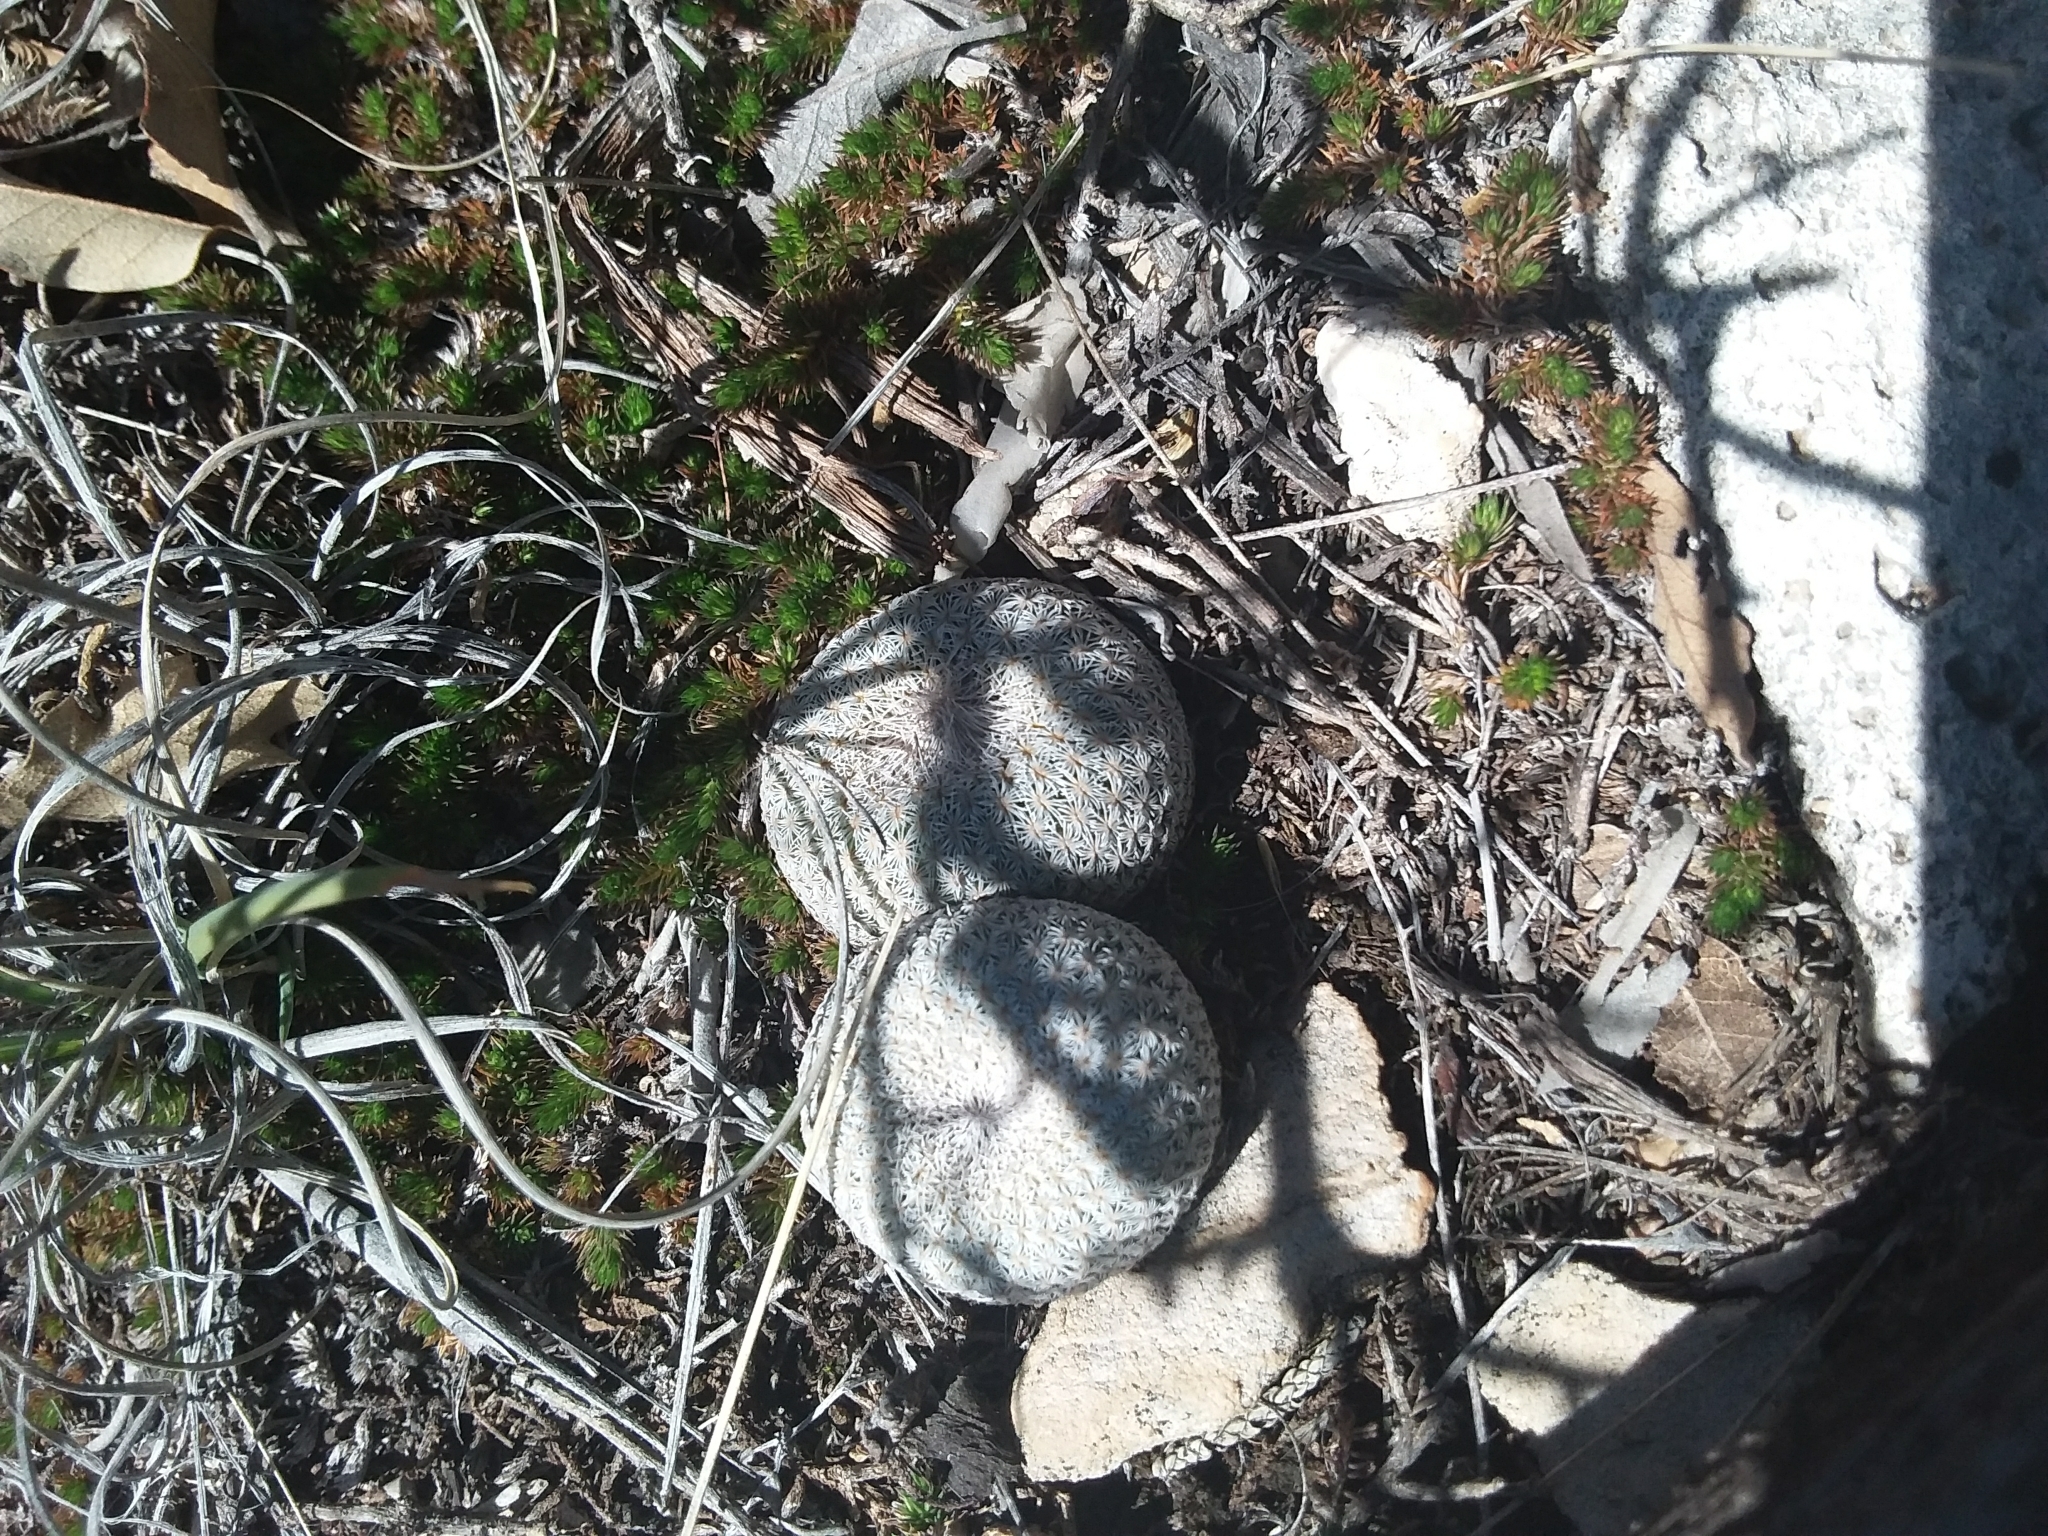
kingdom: Plantae
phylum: Tracheophyta
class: Magnoliopsida
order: Caryophyllales
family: Cactaceae
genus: Epithelantha
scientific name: Epithelantha micromeris
